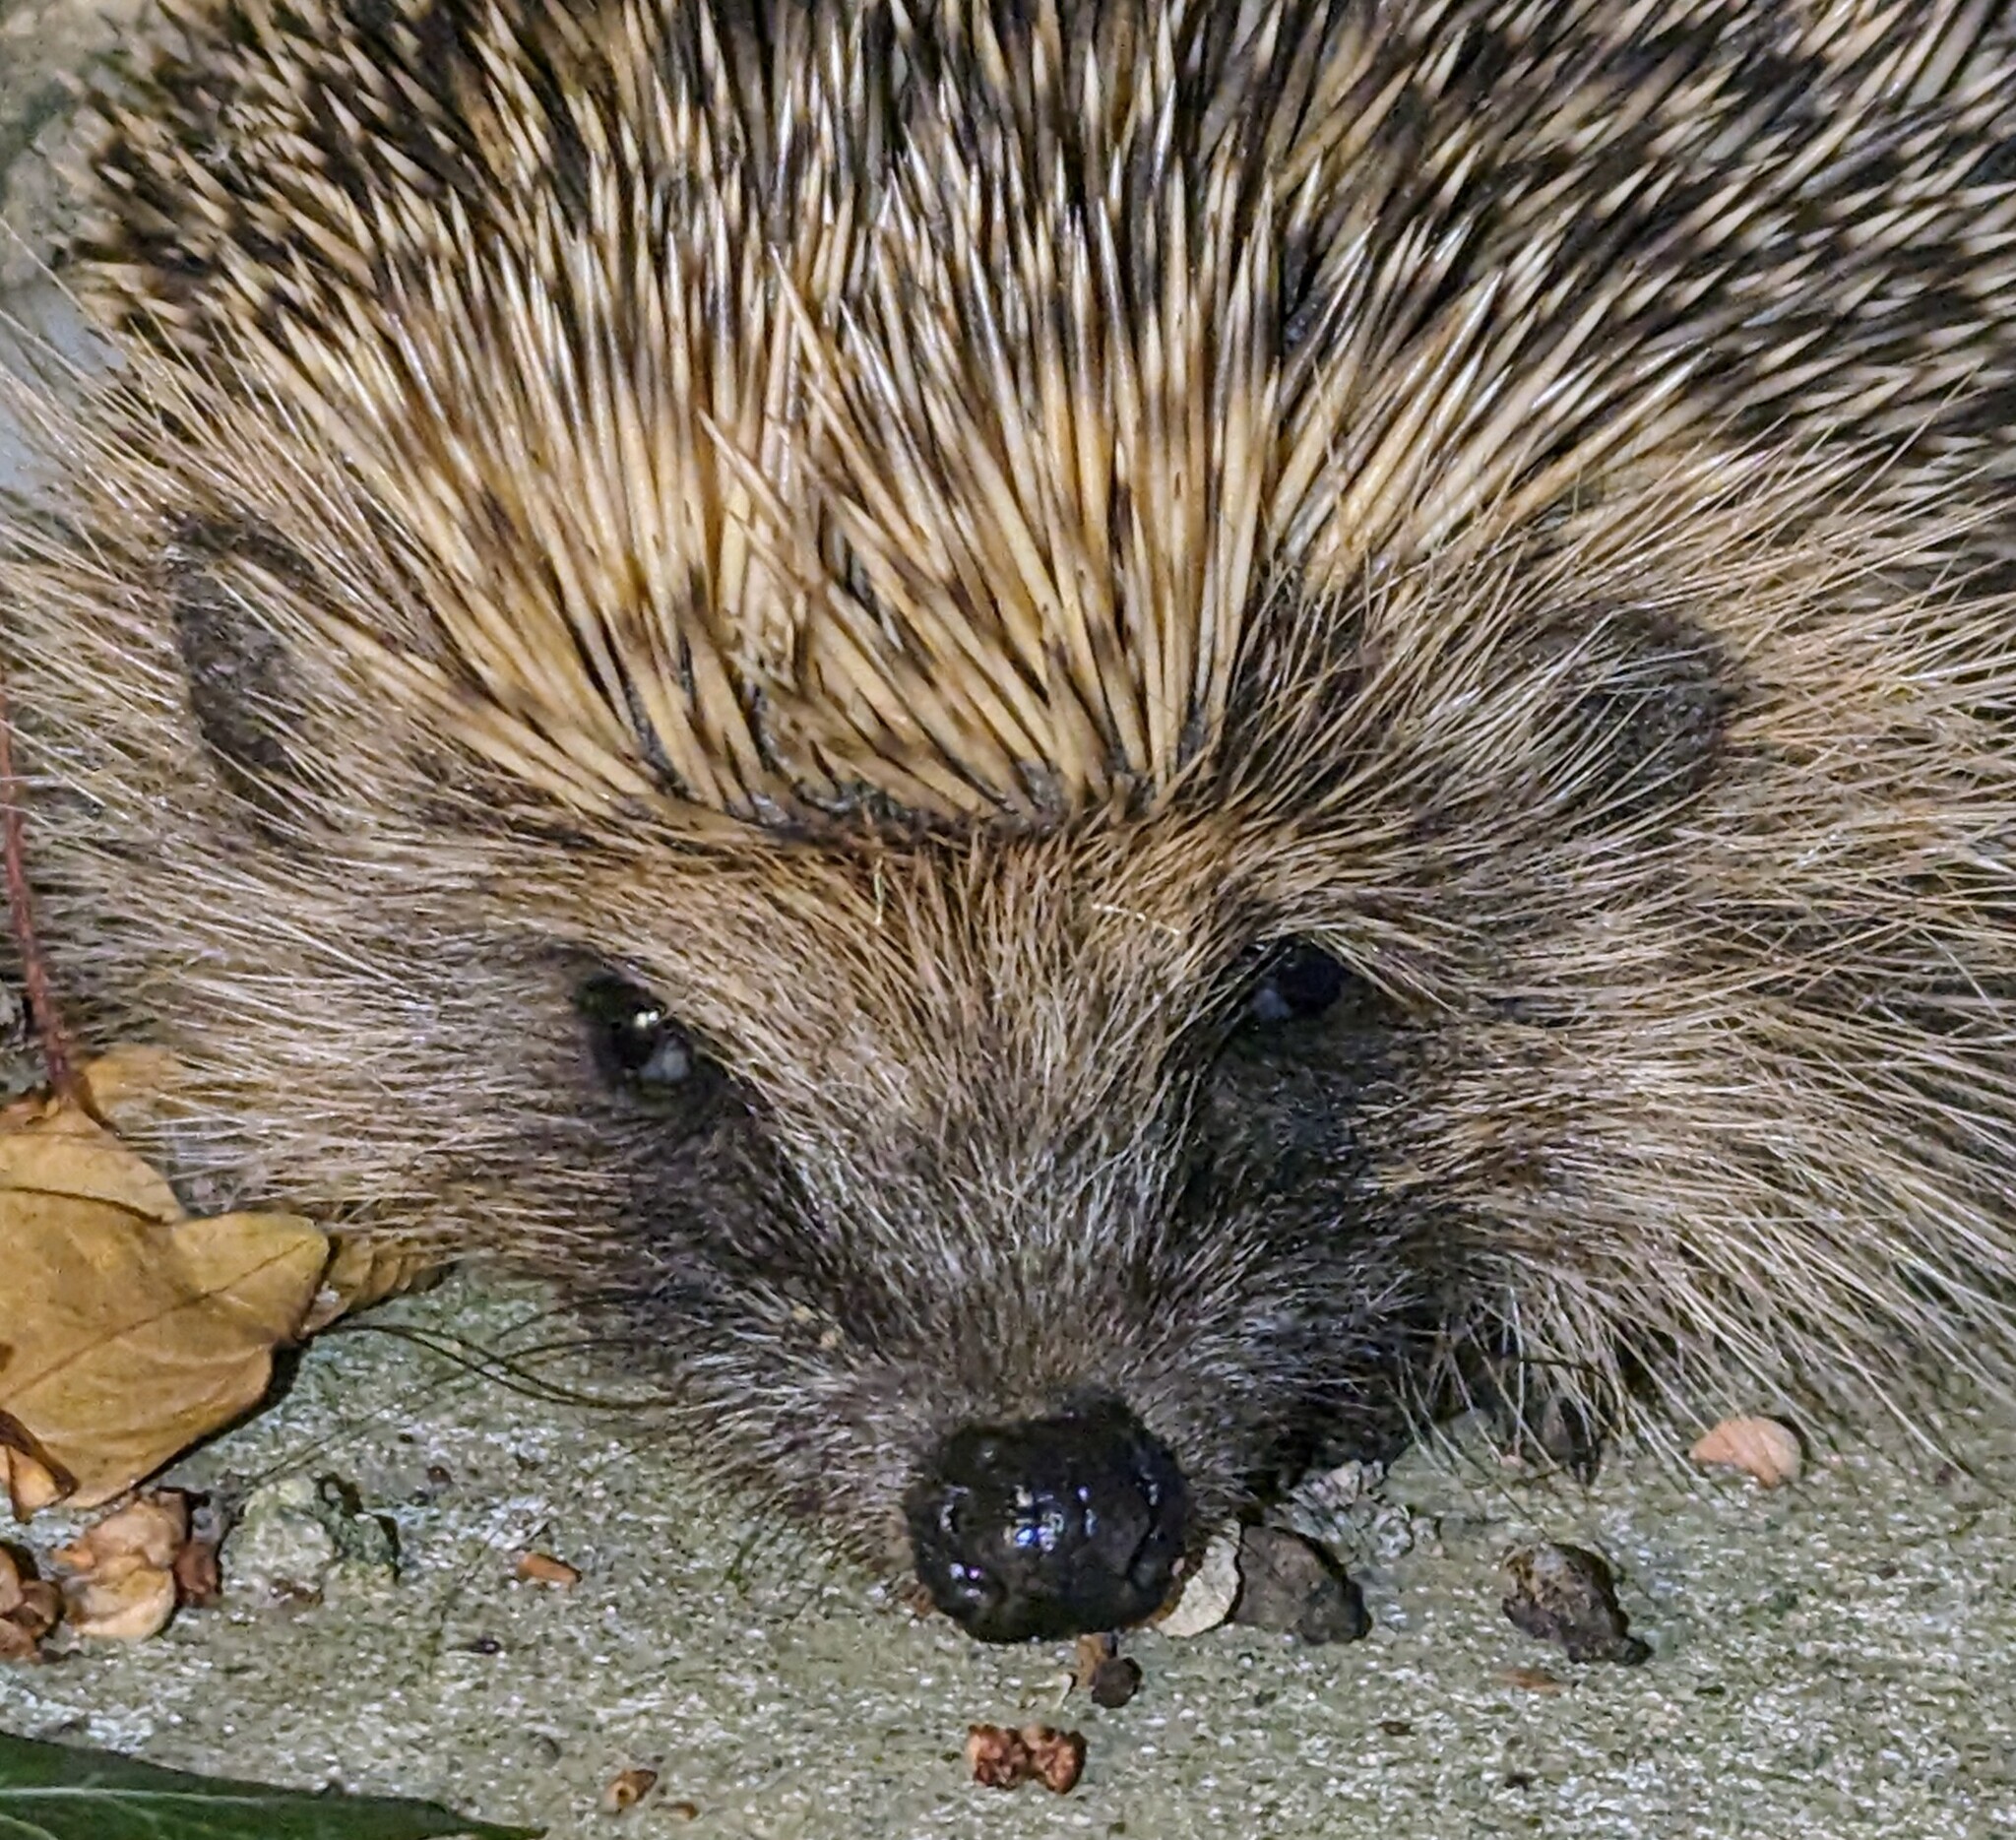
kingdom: Animalia
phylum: Chordata
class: Mammalia
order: Erinaceomorpha
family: Erinaceidae
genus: Erinaceus
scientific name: Erinaceus europaeus
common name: West european hedgehog
